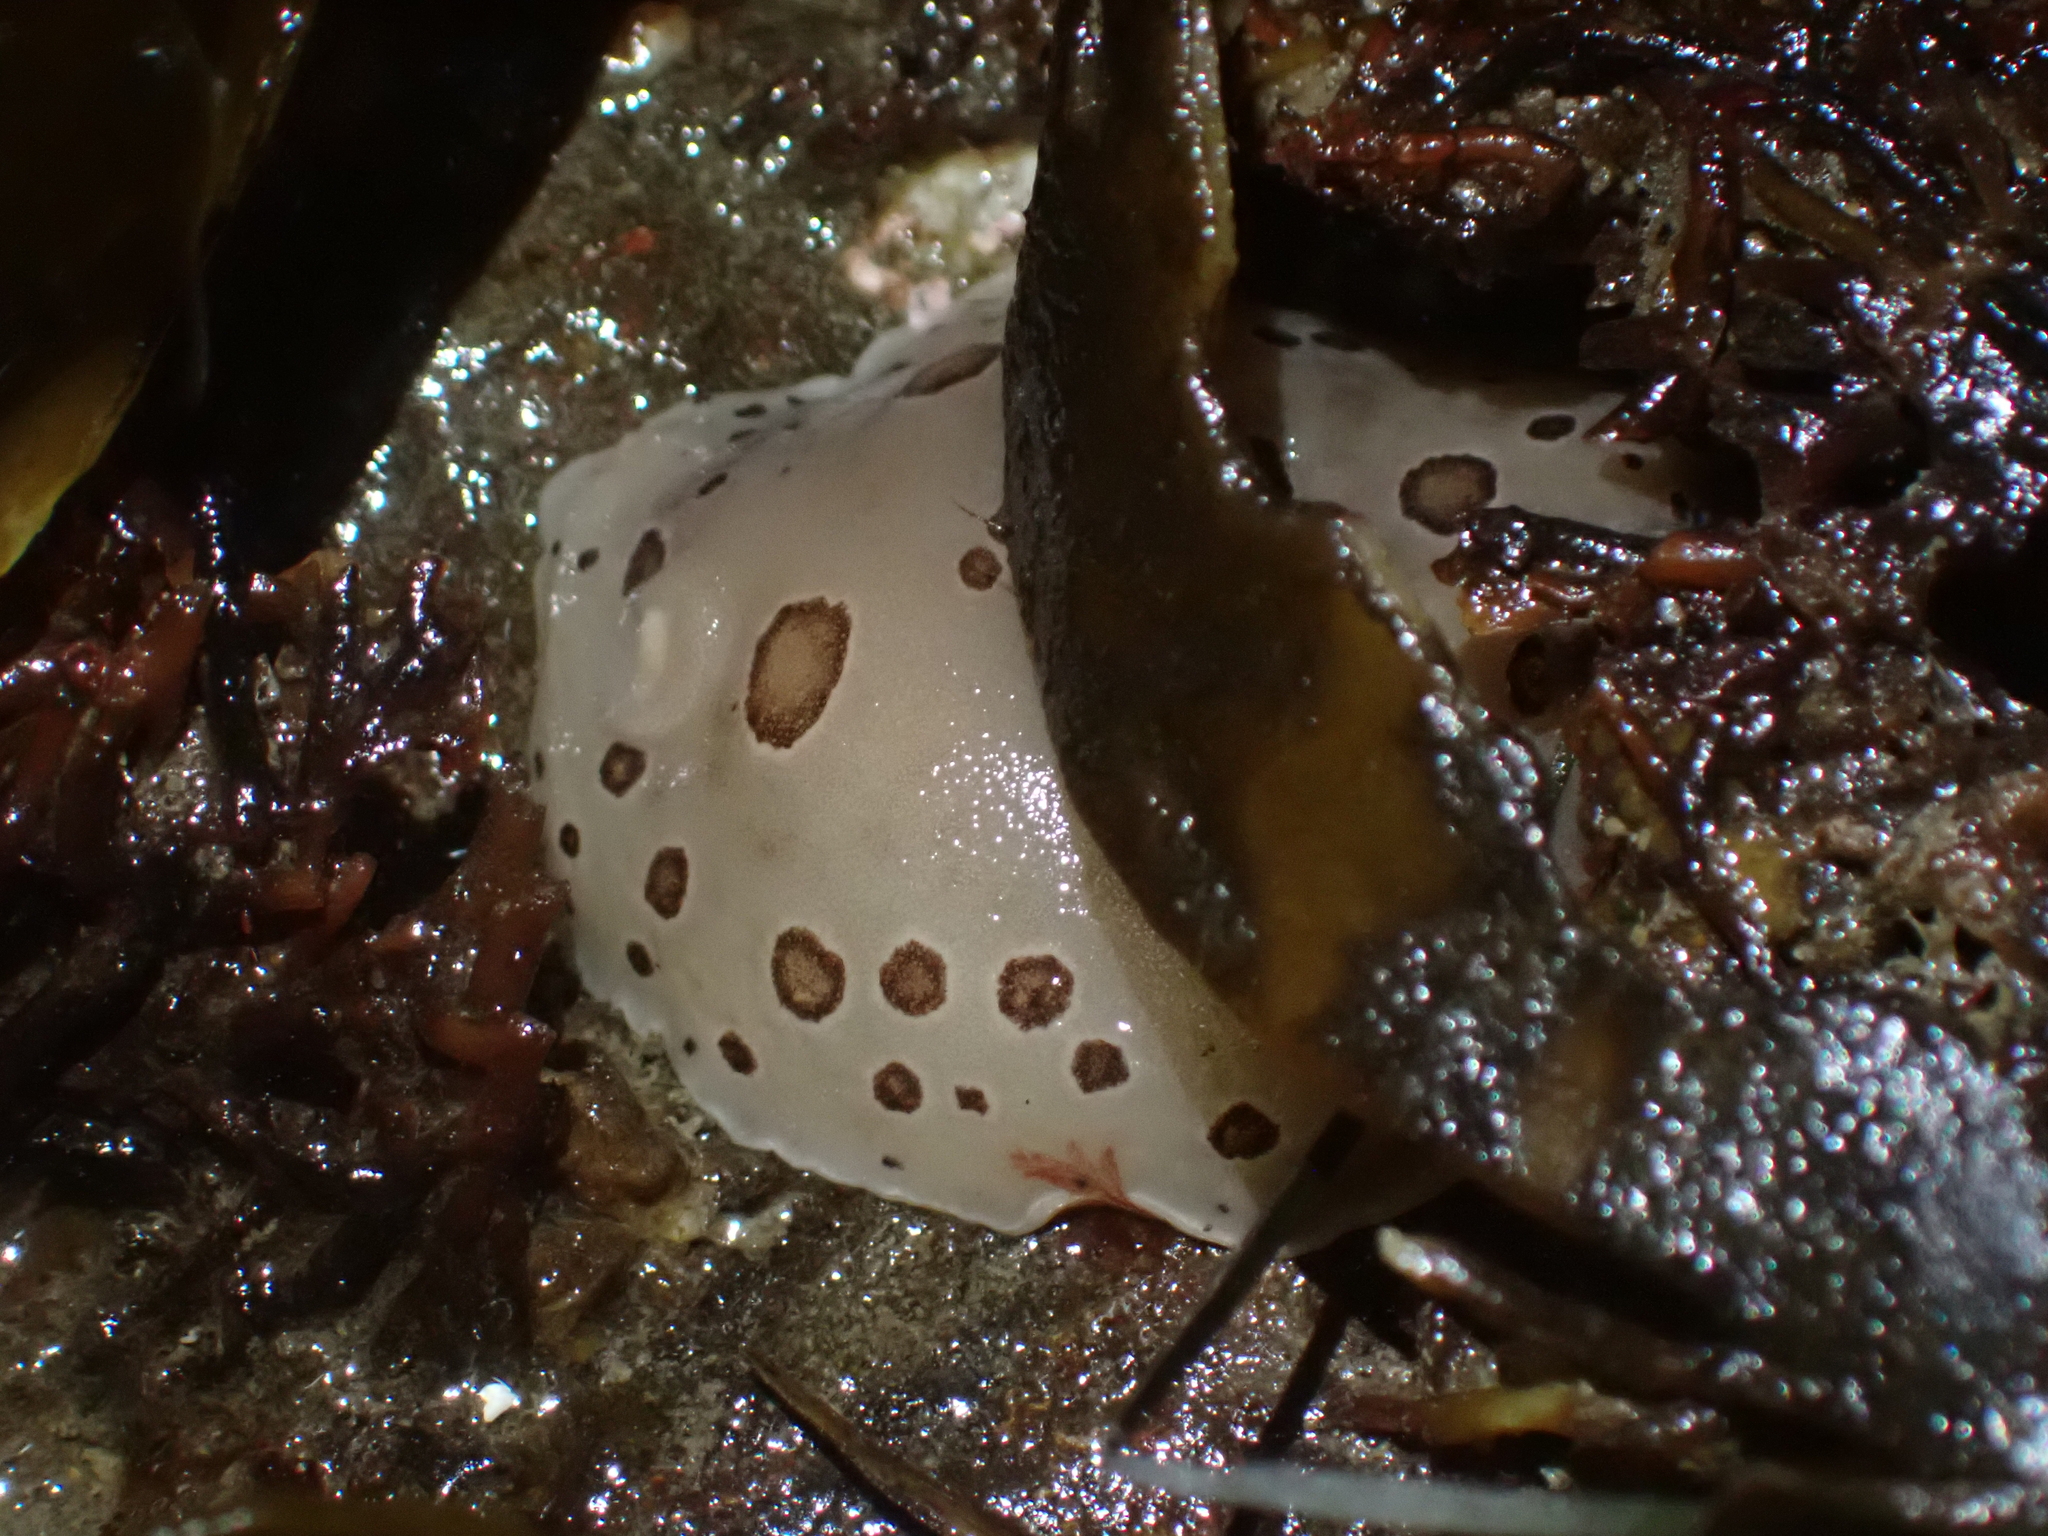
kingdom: Animalia
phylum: Mollusca
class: Gastropoda
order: Nudibranchia
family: Discodorididae
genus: Diaulula
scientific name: Diaulula odonoghuei
